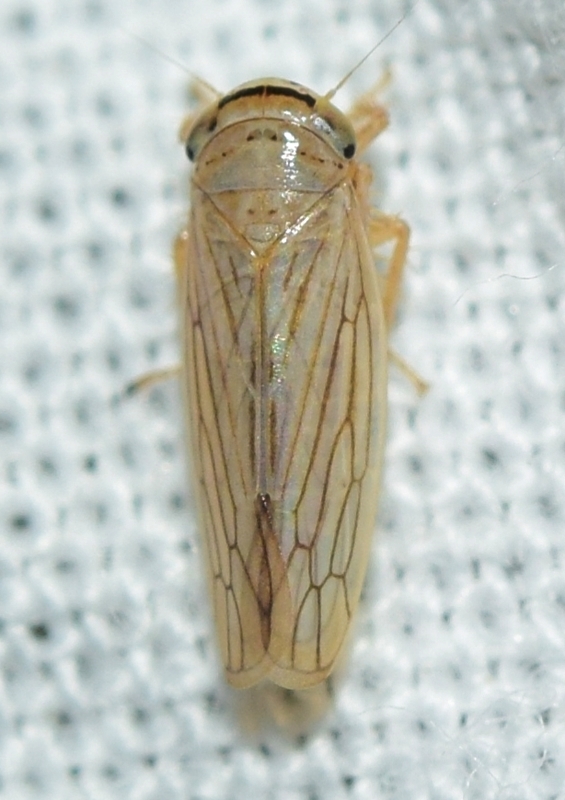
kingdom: Animalia
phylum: Arthropoda
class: Insecta
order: Hemiptera
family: Cicadellidae
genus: Exitianus
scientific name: Exitianus capicola
